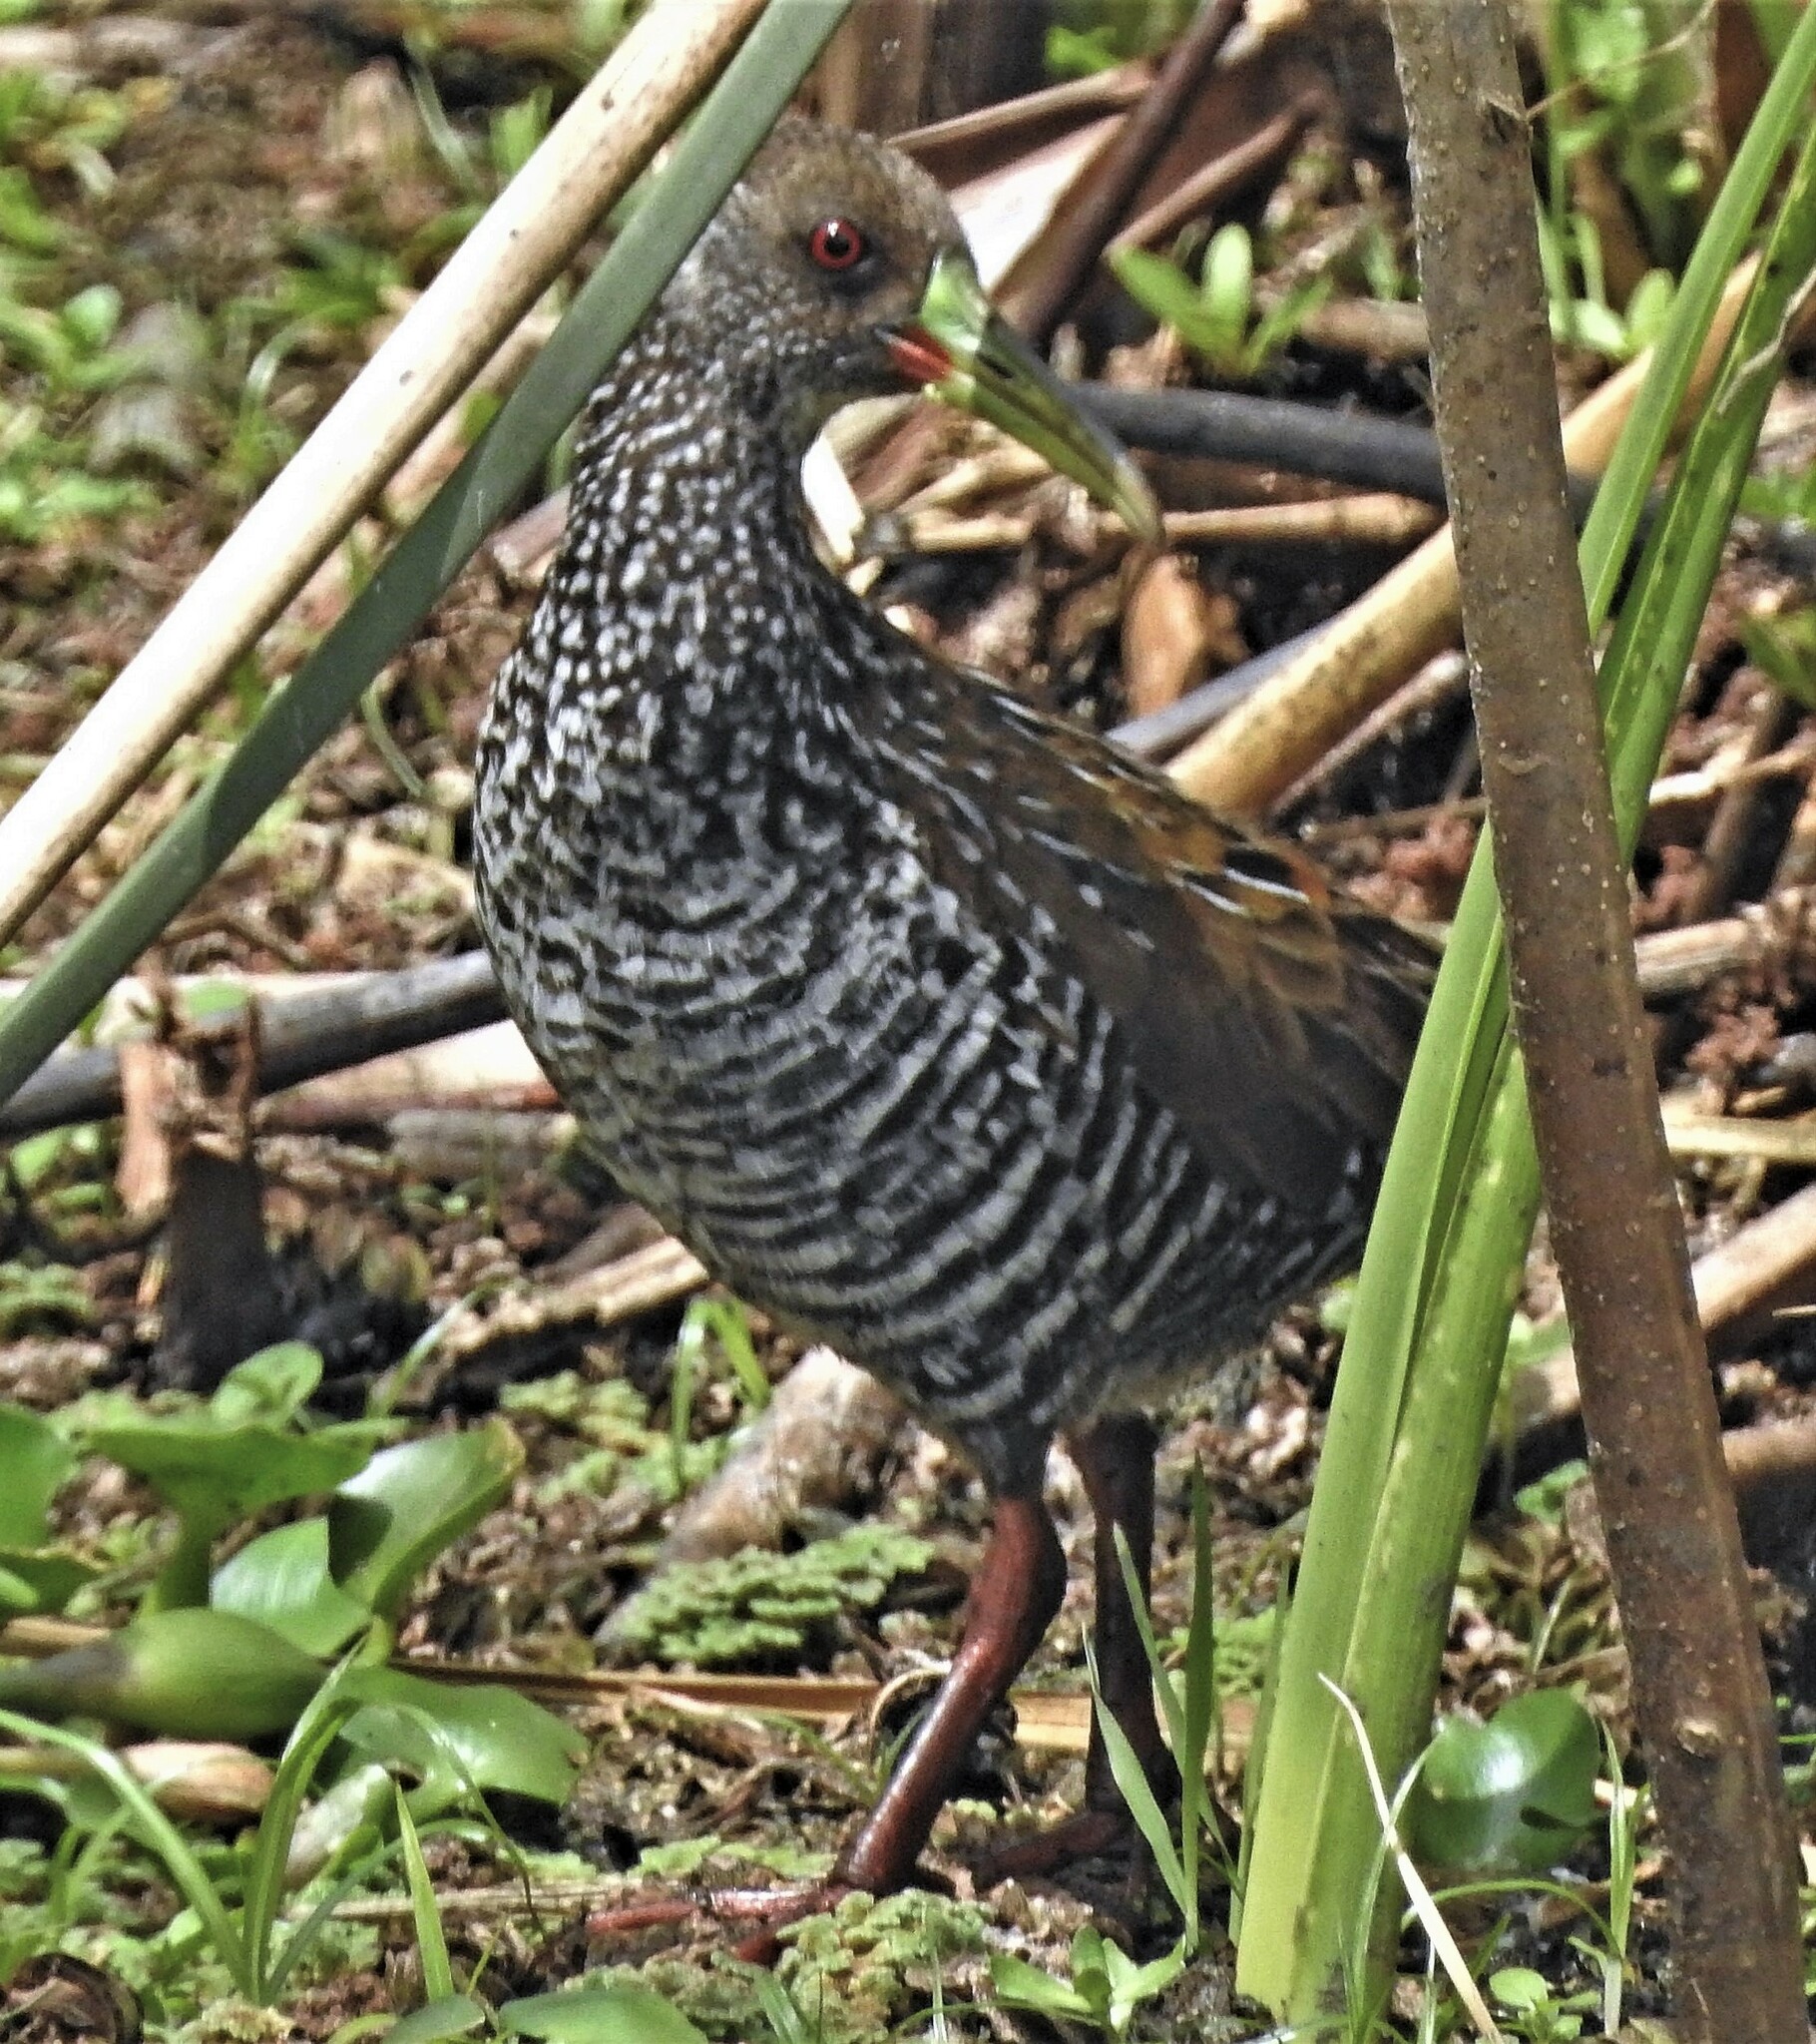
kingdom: Animalia
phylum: Chordata
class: Aves
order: Gruiformes
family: Rallidae
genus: Pardirallus
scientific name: Pardirallus maculatus
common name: Spotted rail
